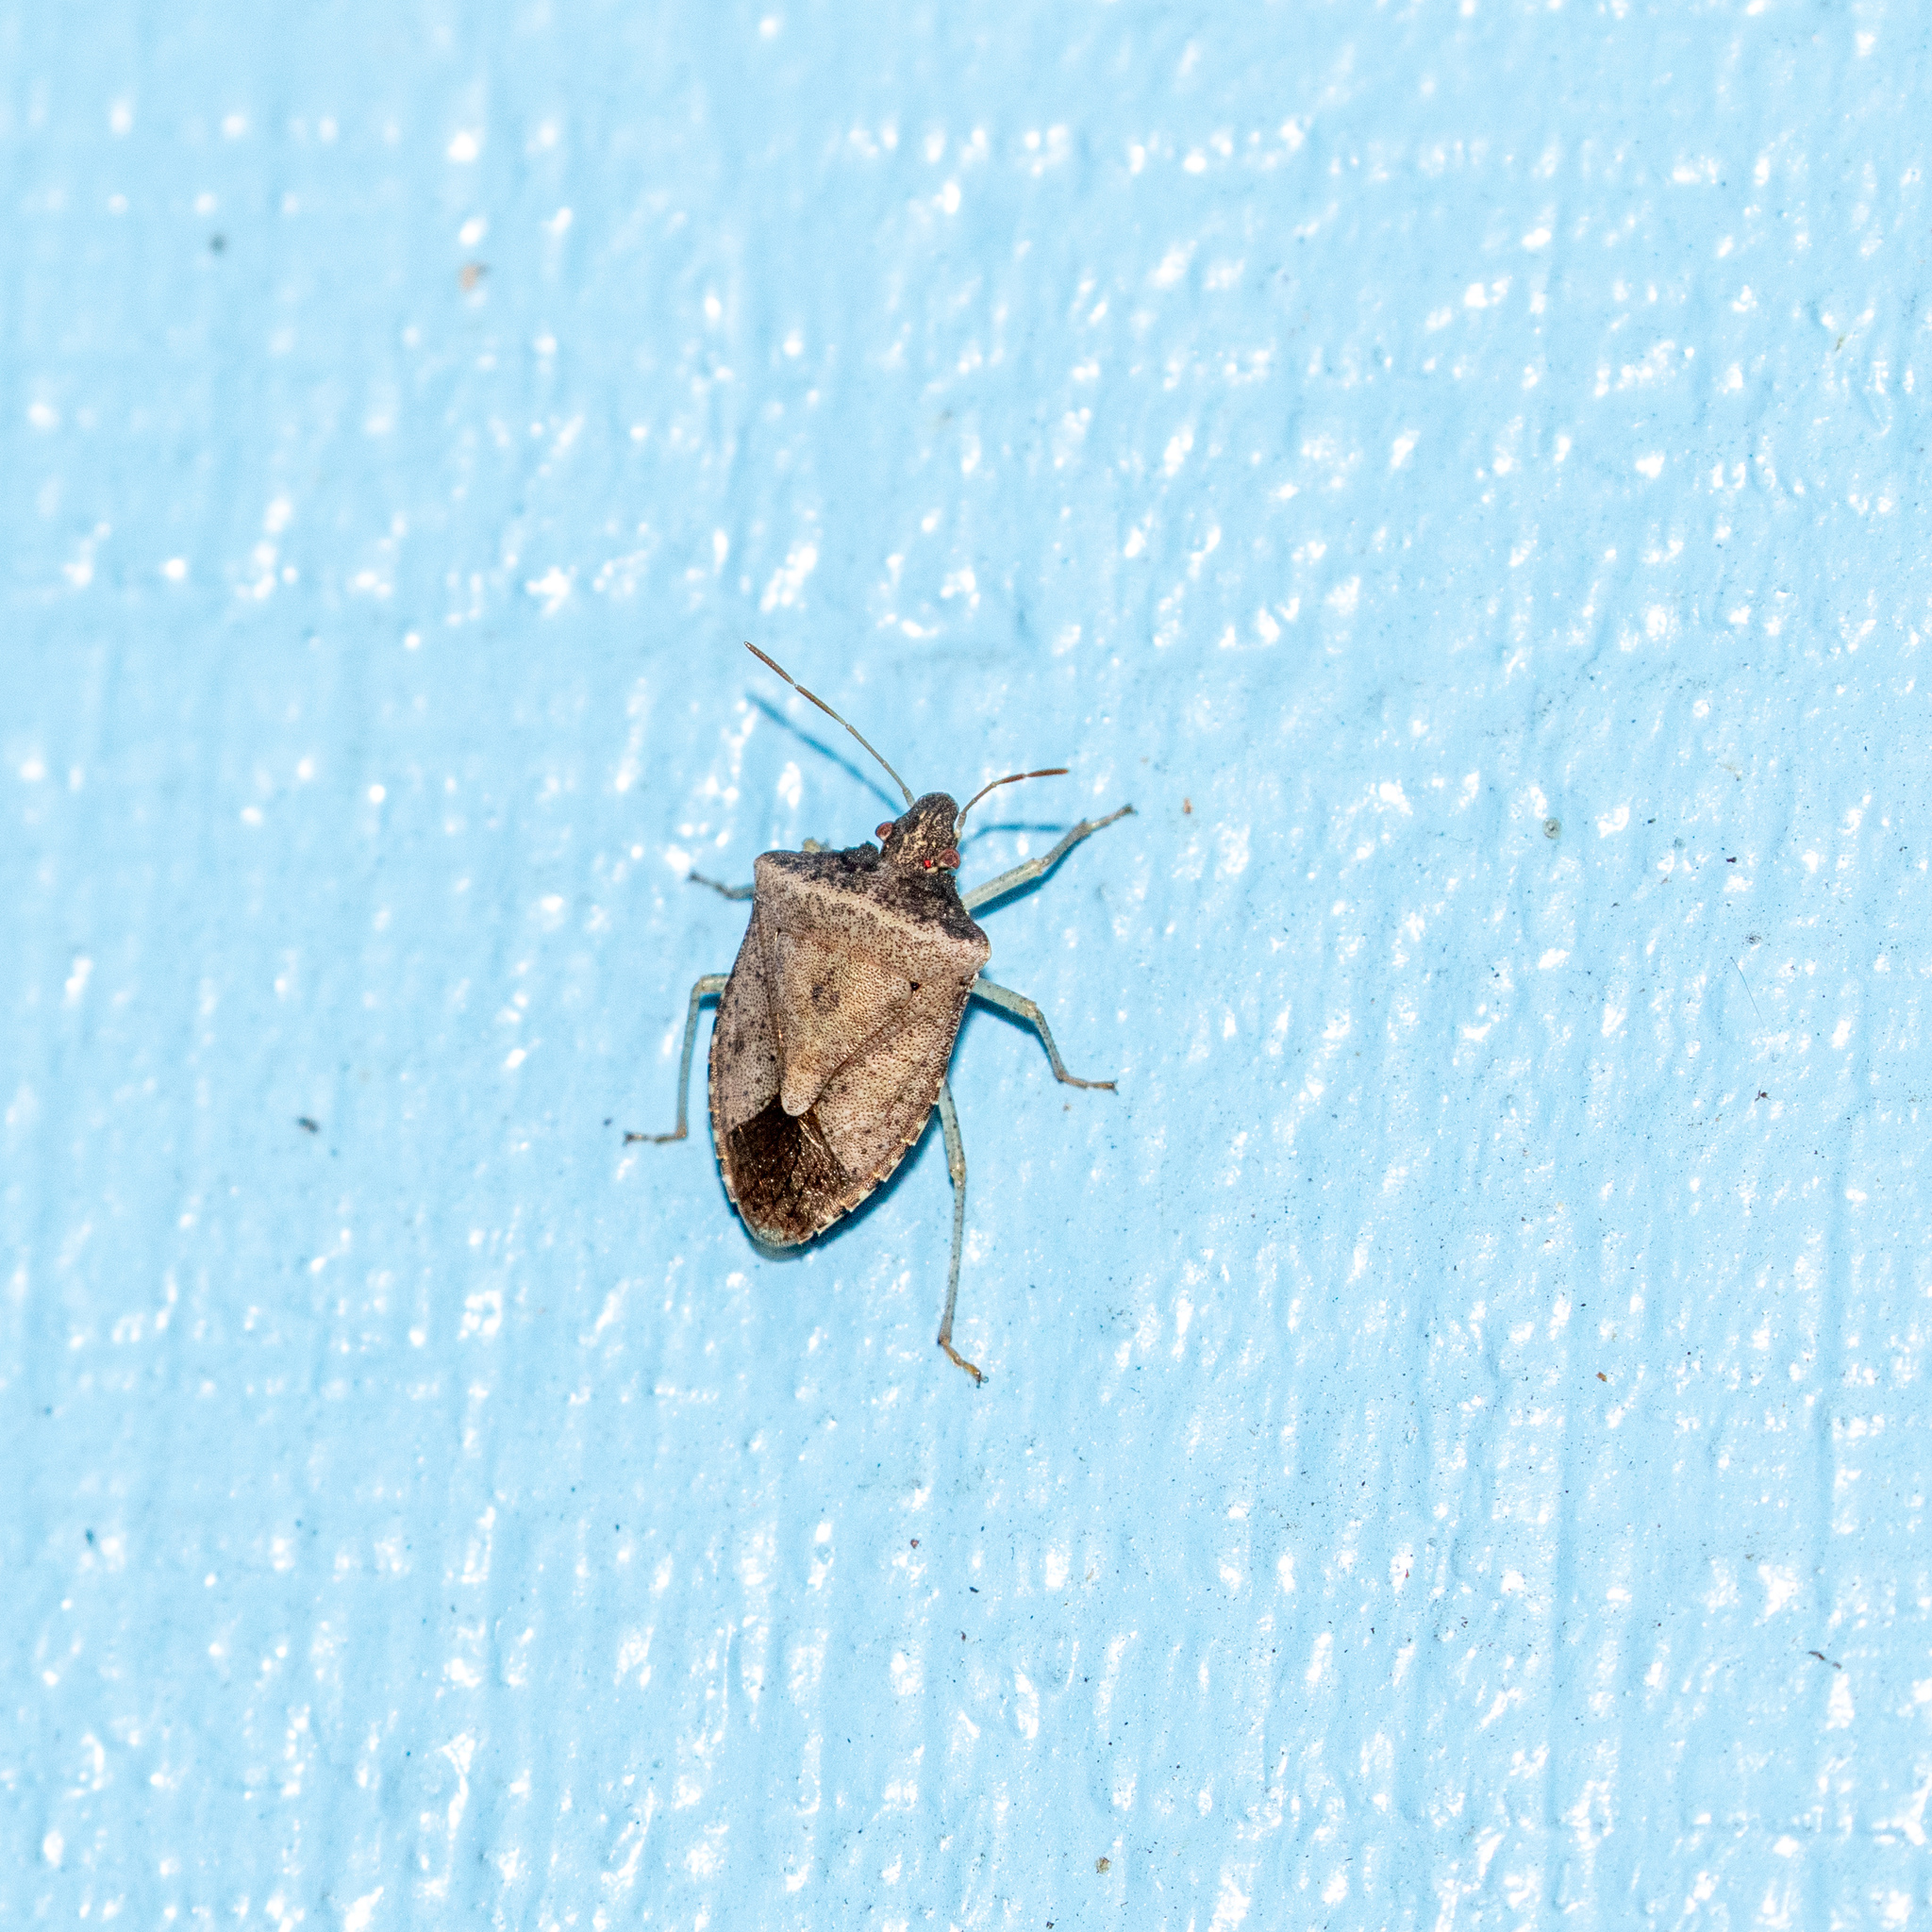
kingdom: Animalia
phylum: Arthropoda
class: Insecta
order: Hemiptera
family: Pentatomidae
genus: Euschistus
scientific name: Euschistus obscurus
